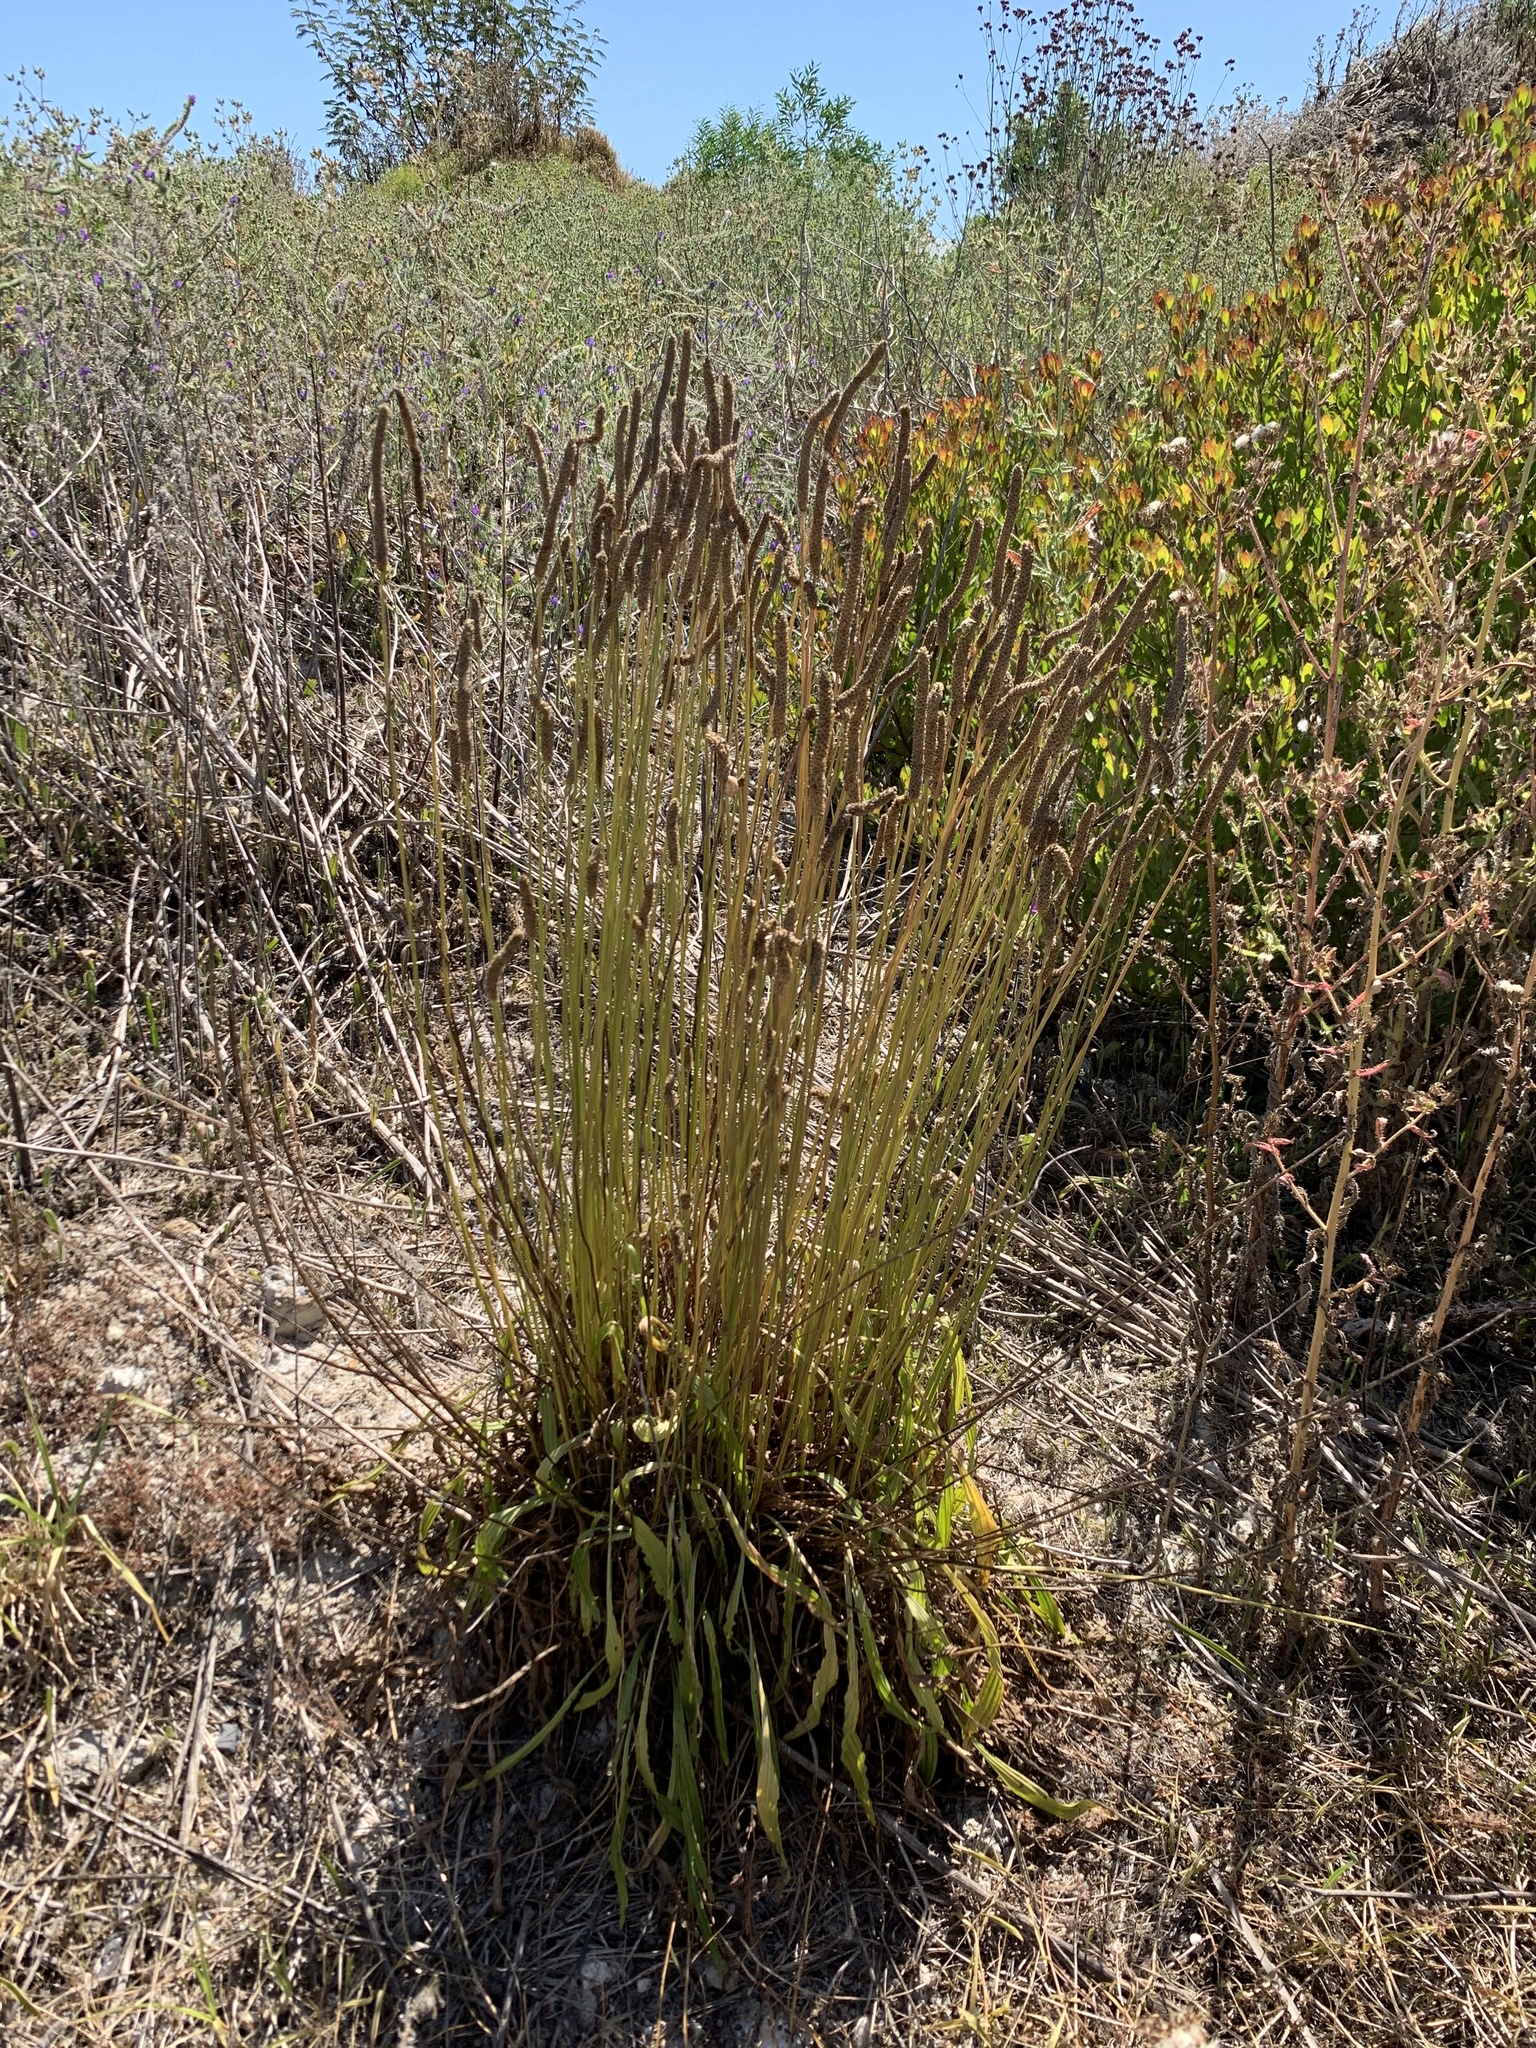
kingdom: Plantae
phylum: Tracheophyta
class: Magnoliopsida
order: Lamiales
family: Plantaginaceae
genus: Plantago
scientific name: Plantago lanceolata
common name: Ribwort plantain
